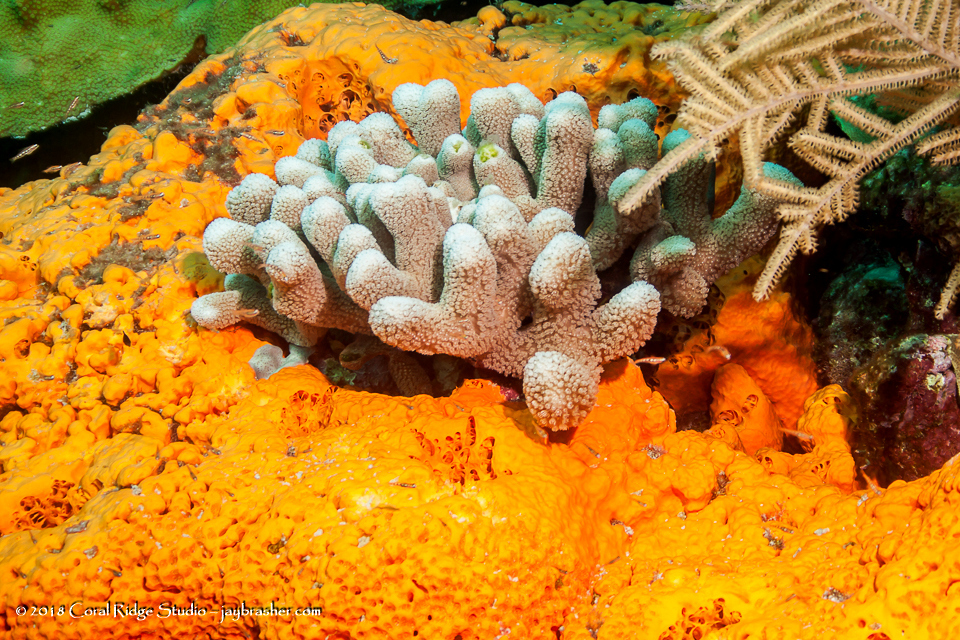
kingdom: Animalia
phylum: Cnidaria
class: Anthozoa
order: Scleractinia
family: Poritidae
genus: Porites
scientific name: Porites furcata
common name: Hump coral
